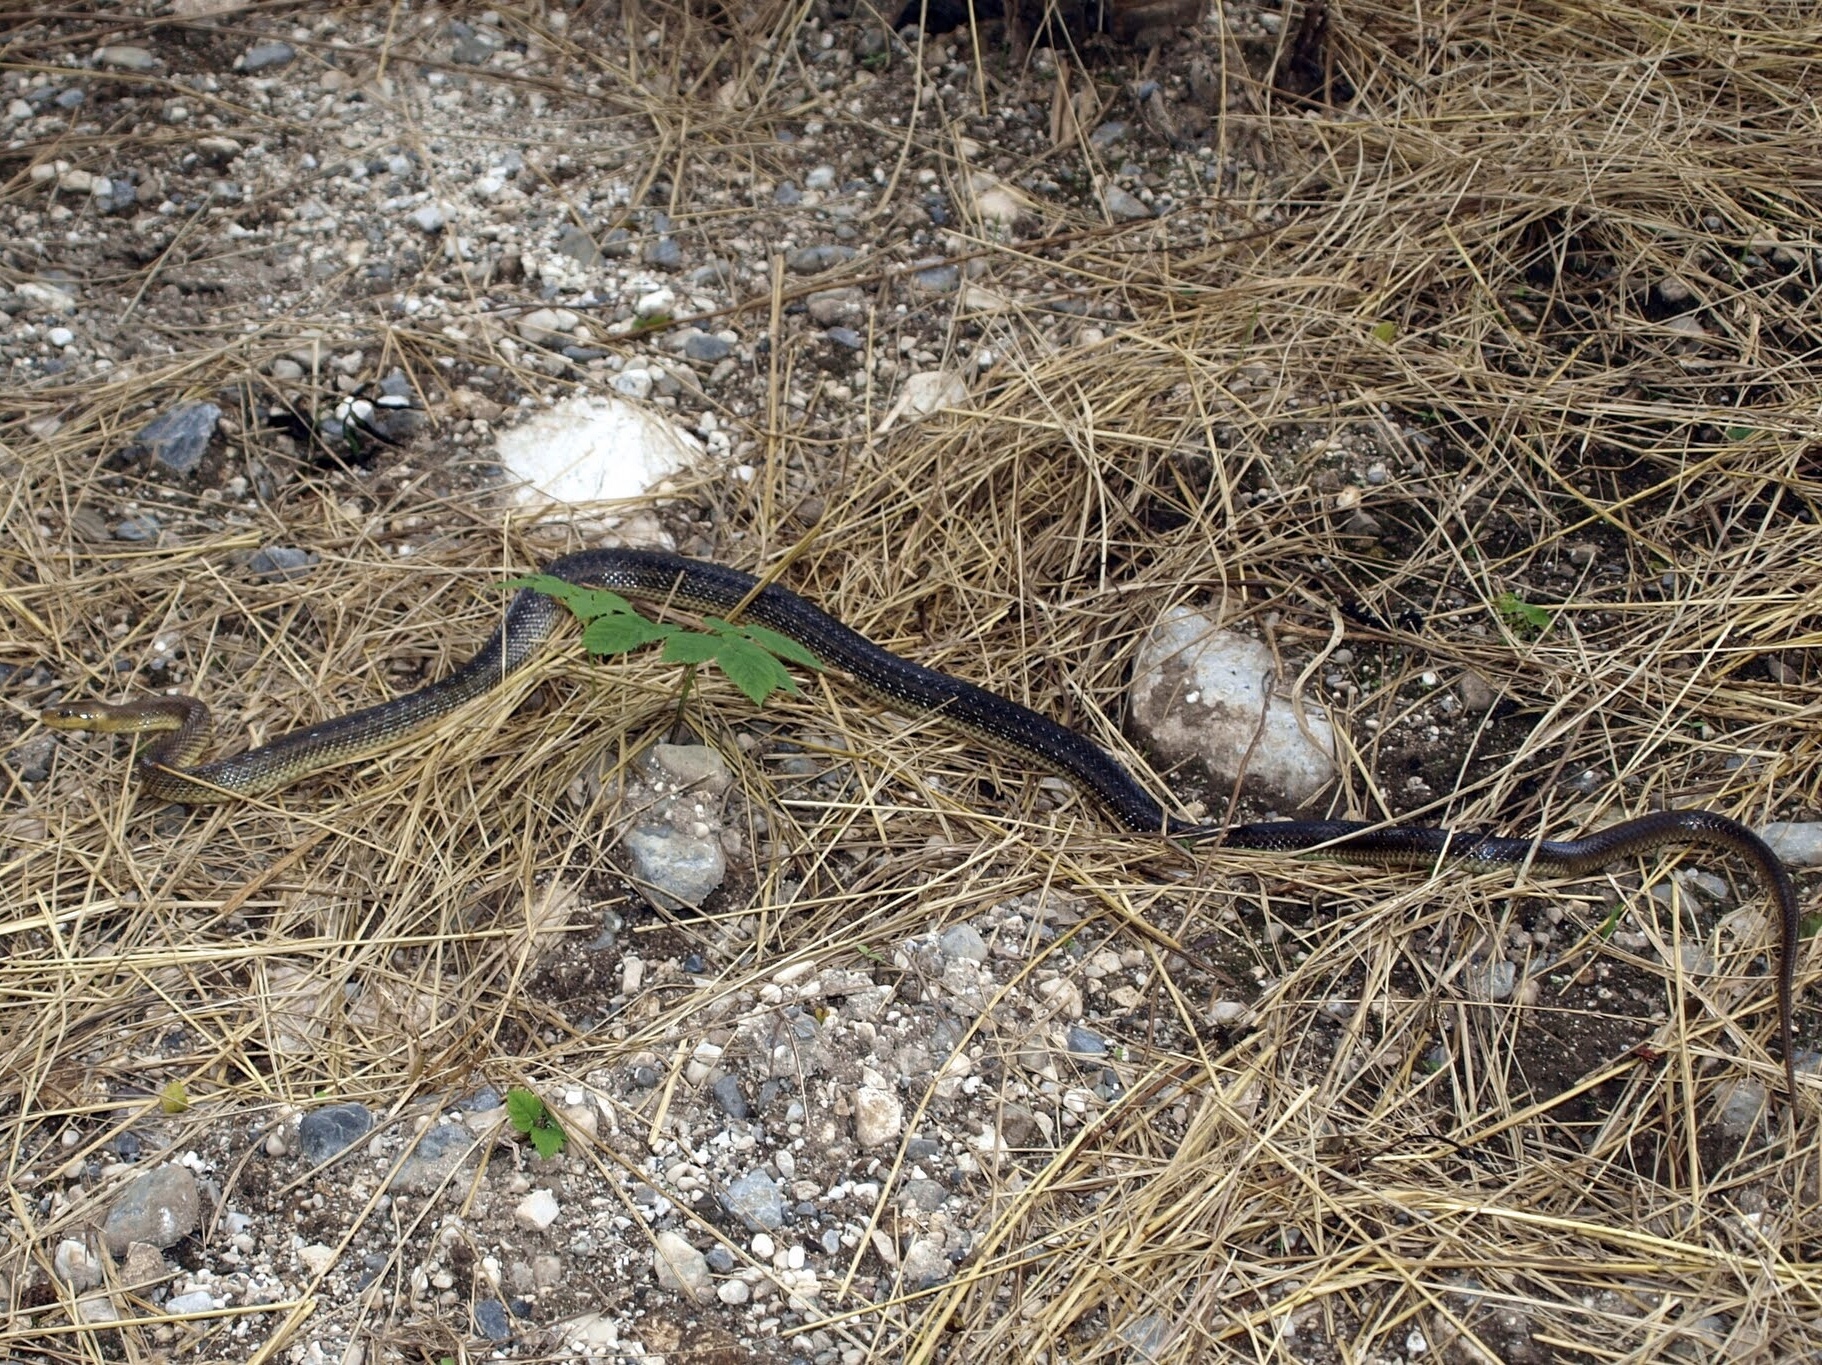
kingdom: Animalia
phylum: Chordata
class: Squamata
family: Colubridae
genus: Zamenis
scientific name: Zamenis longissimus
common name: Aesculapean snake
